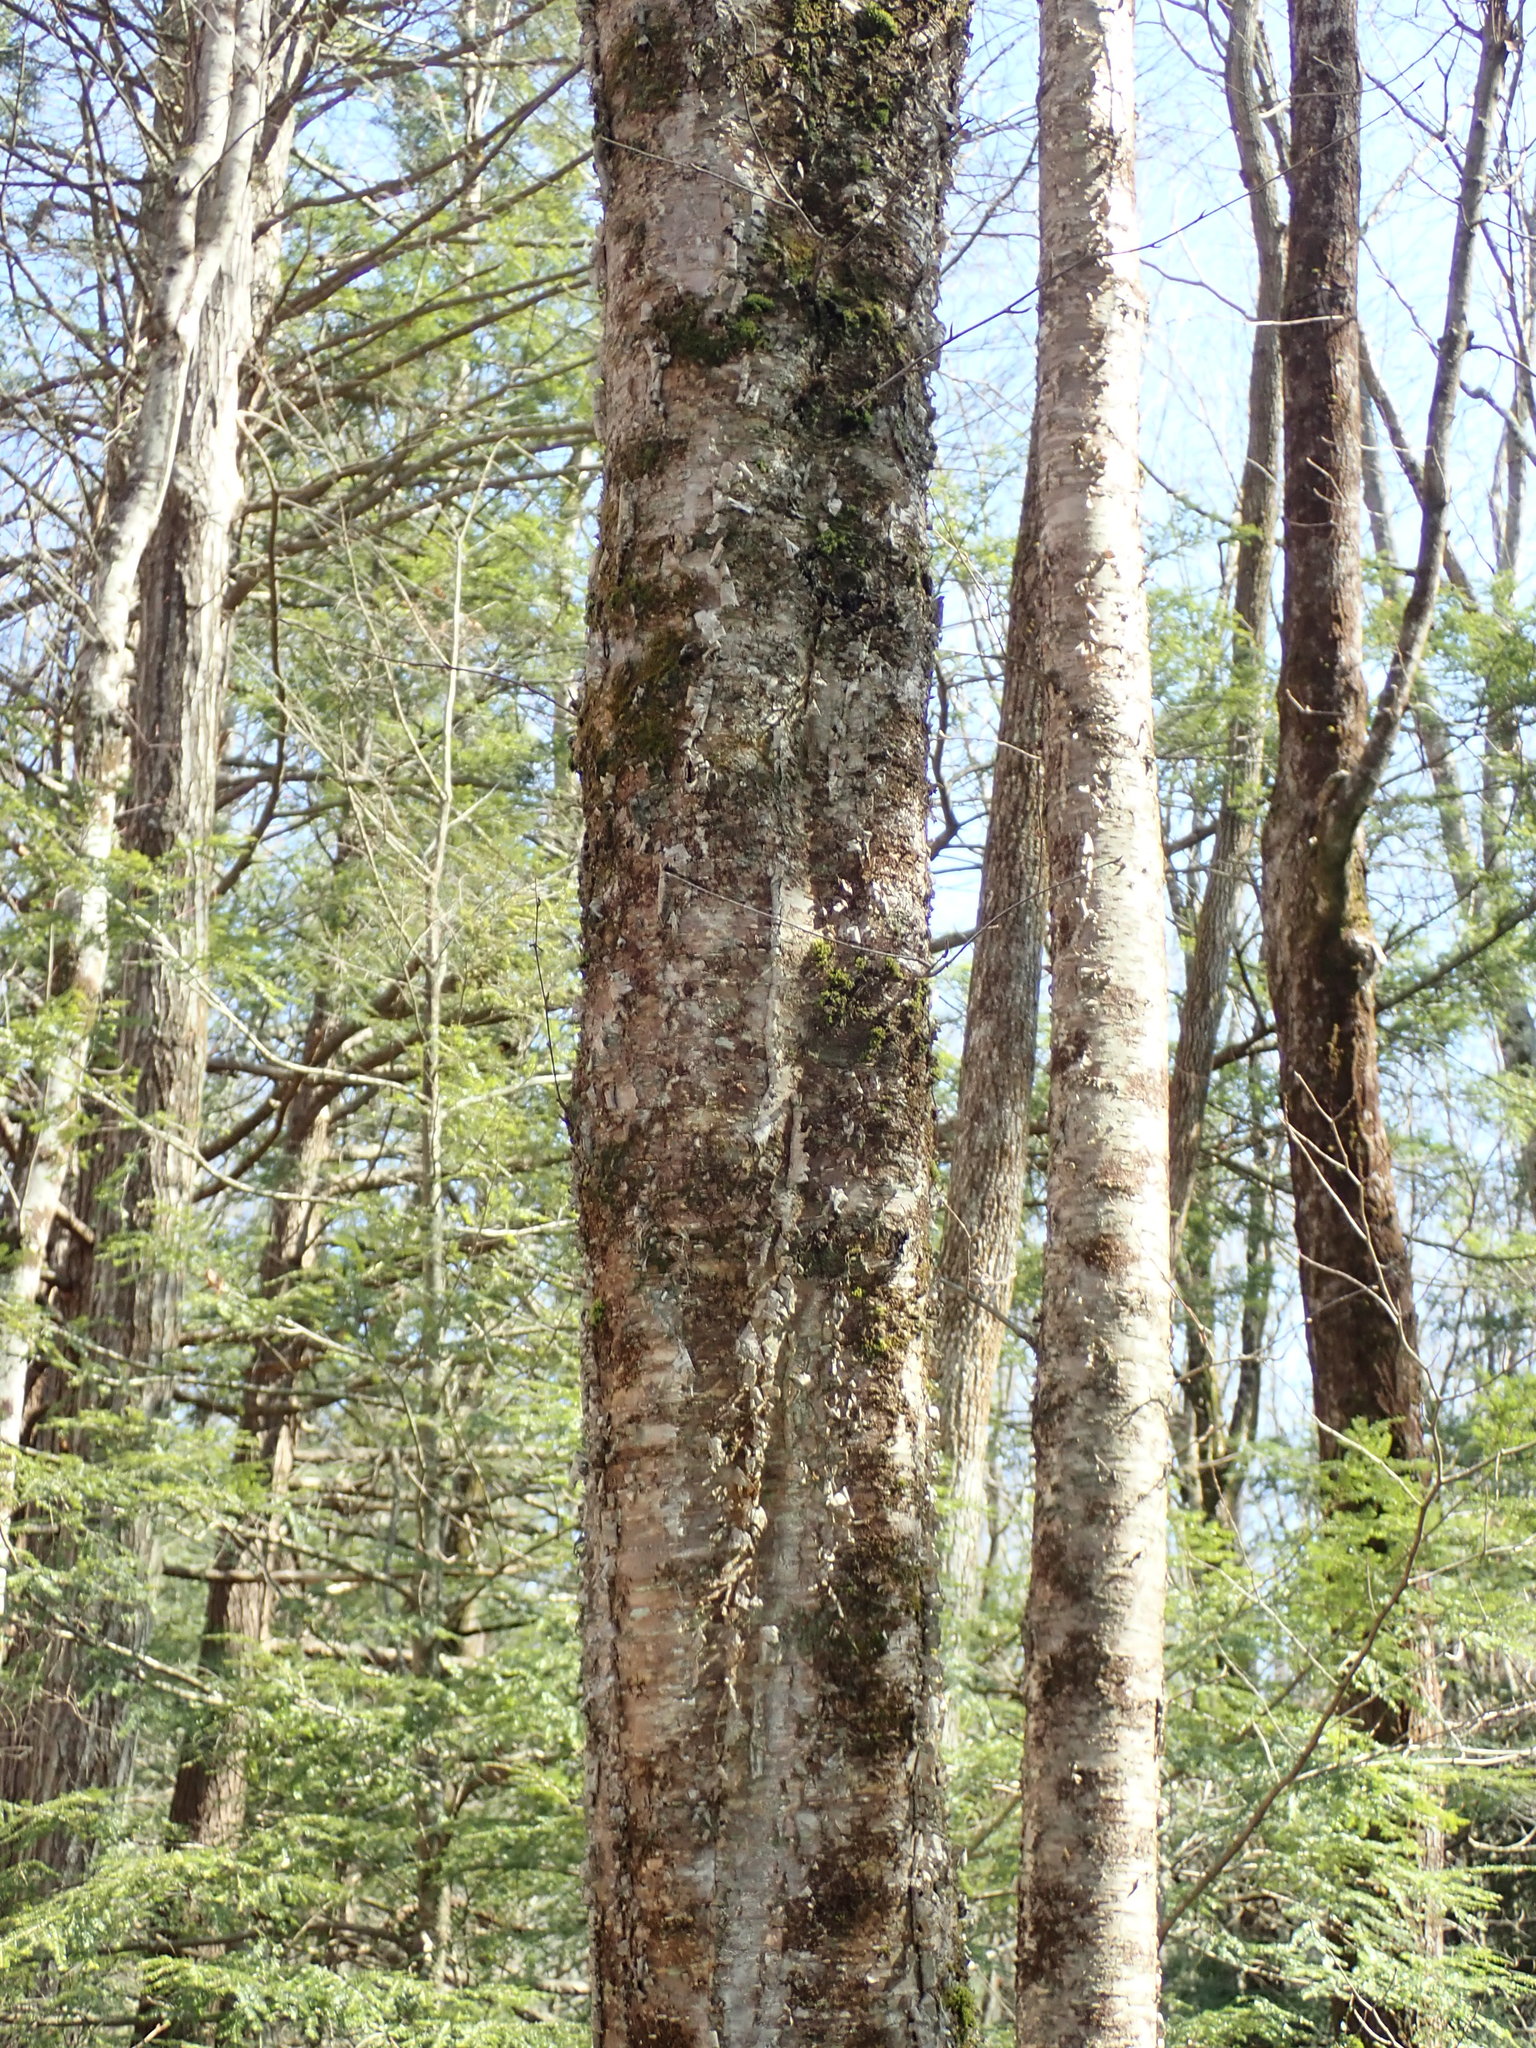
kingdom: Plantae
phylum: Tracheophyta
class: Magnoliopsida
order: Fagales
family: Betulaceae
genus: Betula
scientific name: Betula alleghaniensis
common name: Yellow birch
